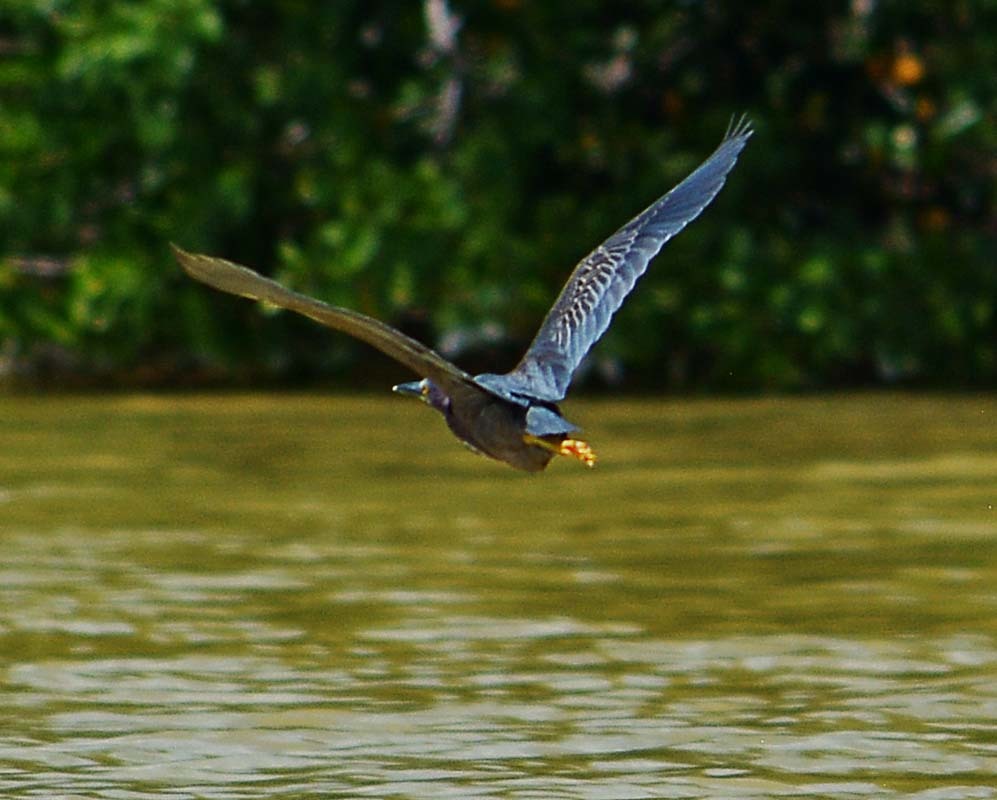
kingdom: Animalia
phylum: Chordata
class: Aves
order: Pelecaniformes
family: Ardeidae
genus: Butorides
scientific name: Butorides virescens
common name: Green heron
